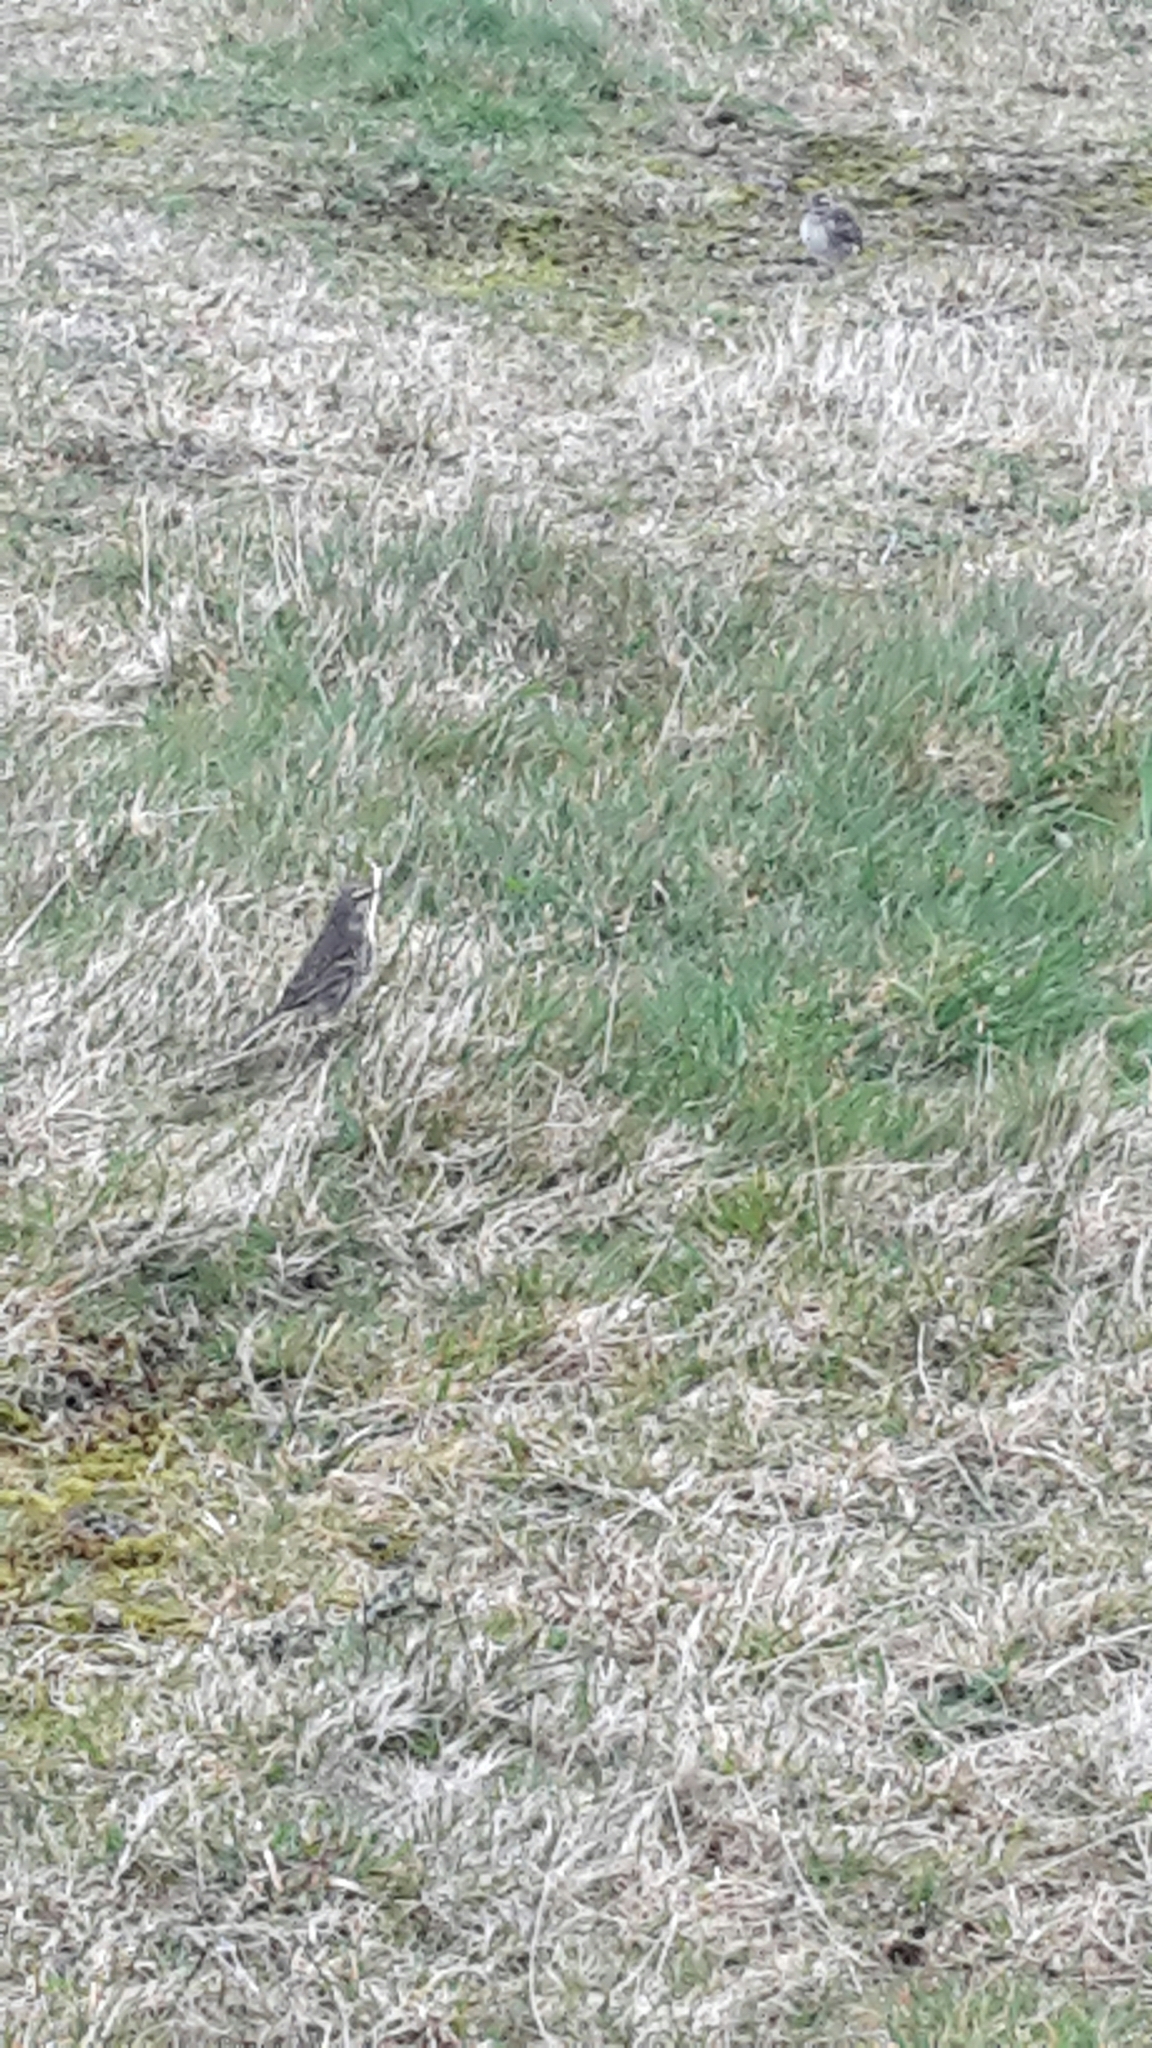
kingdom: Animalia
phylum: Chordata
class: Aves
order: Passeriformes
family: Motacillidae
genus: Anthus
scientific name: Anthus novaeseelandiae
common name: New zealand pipit
